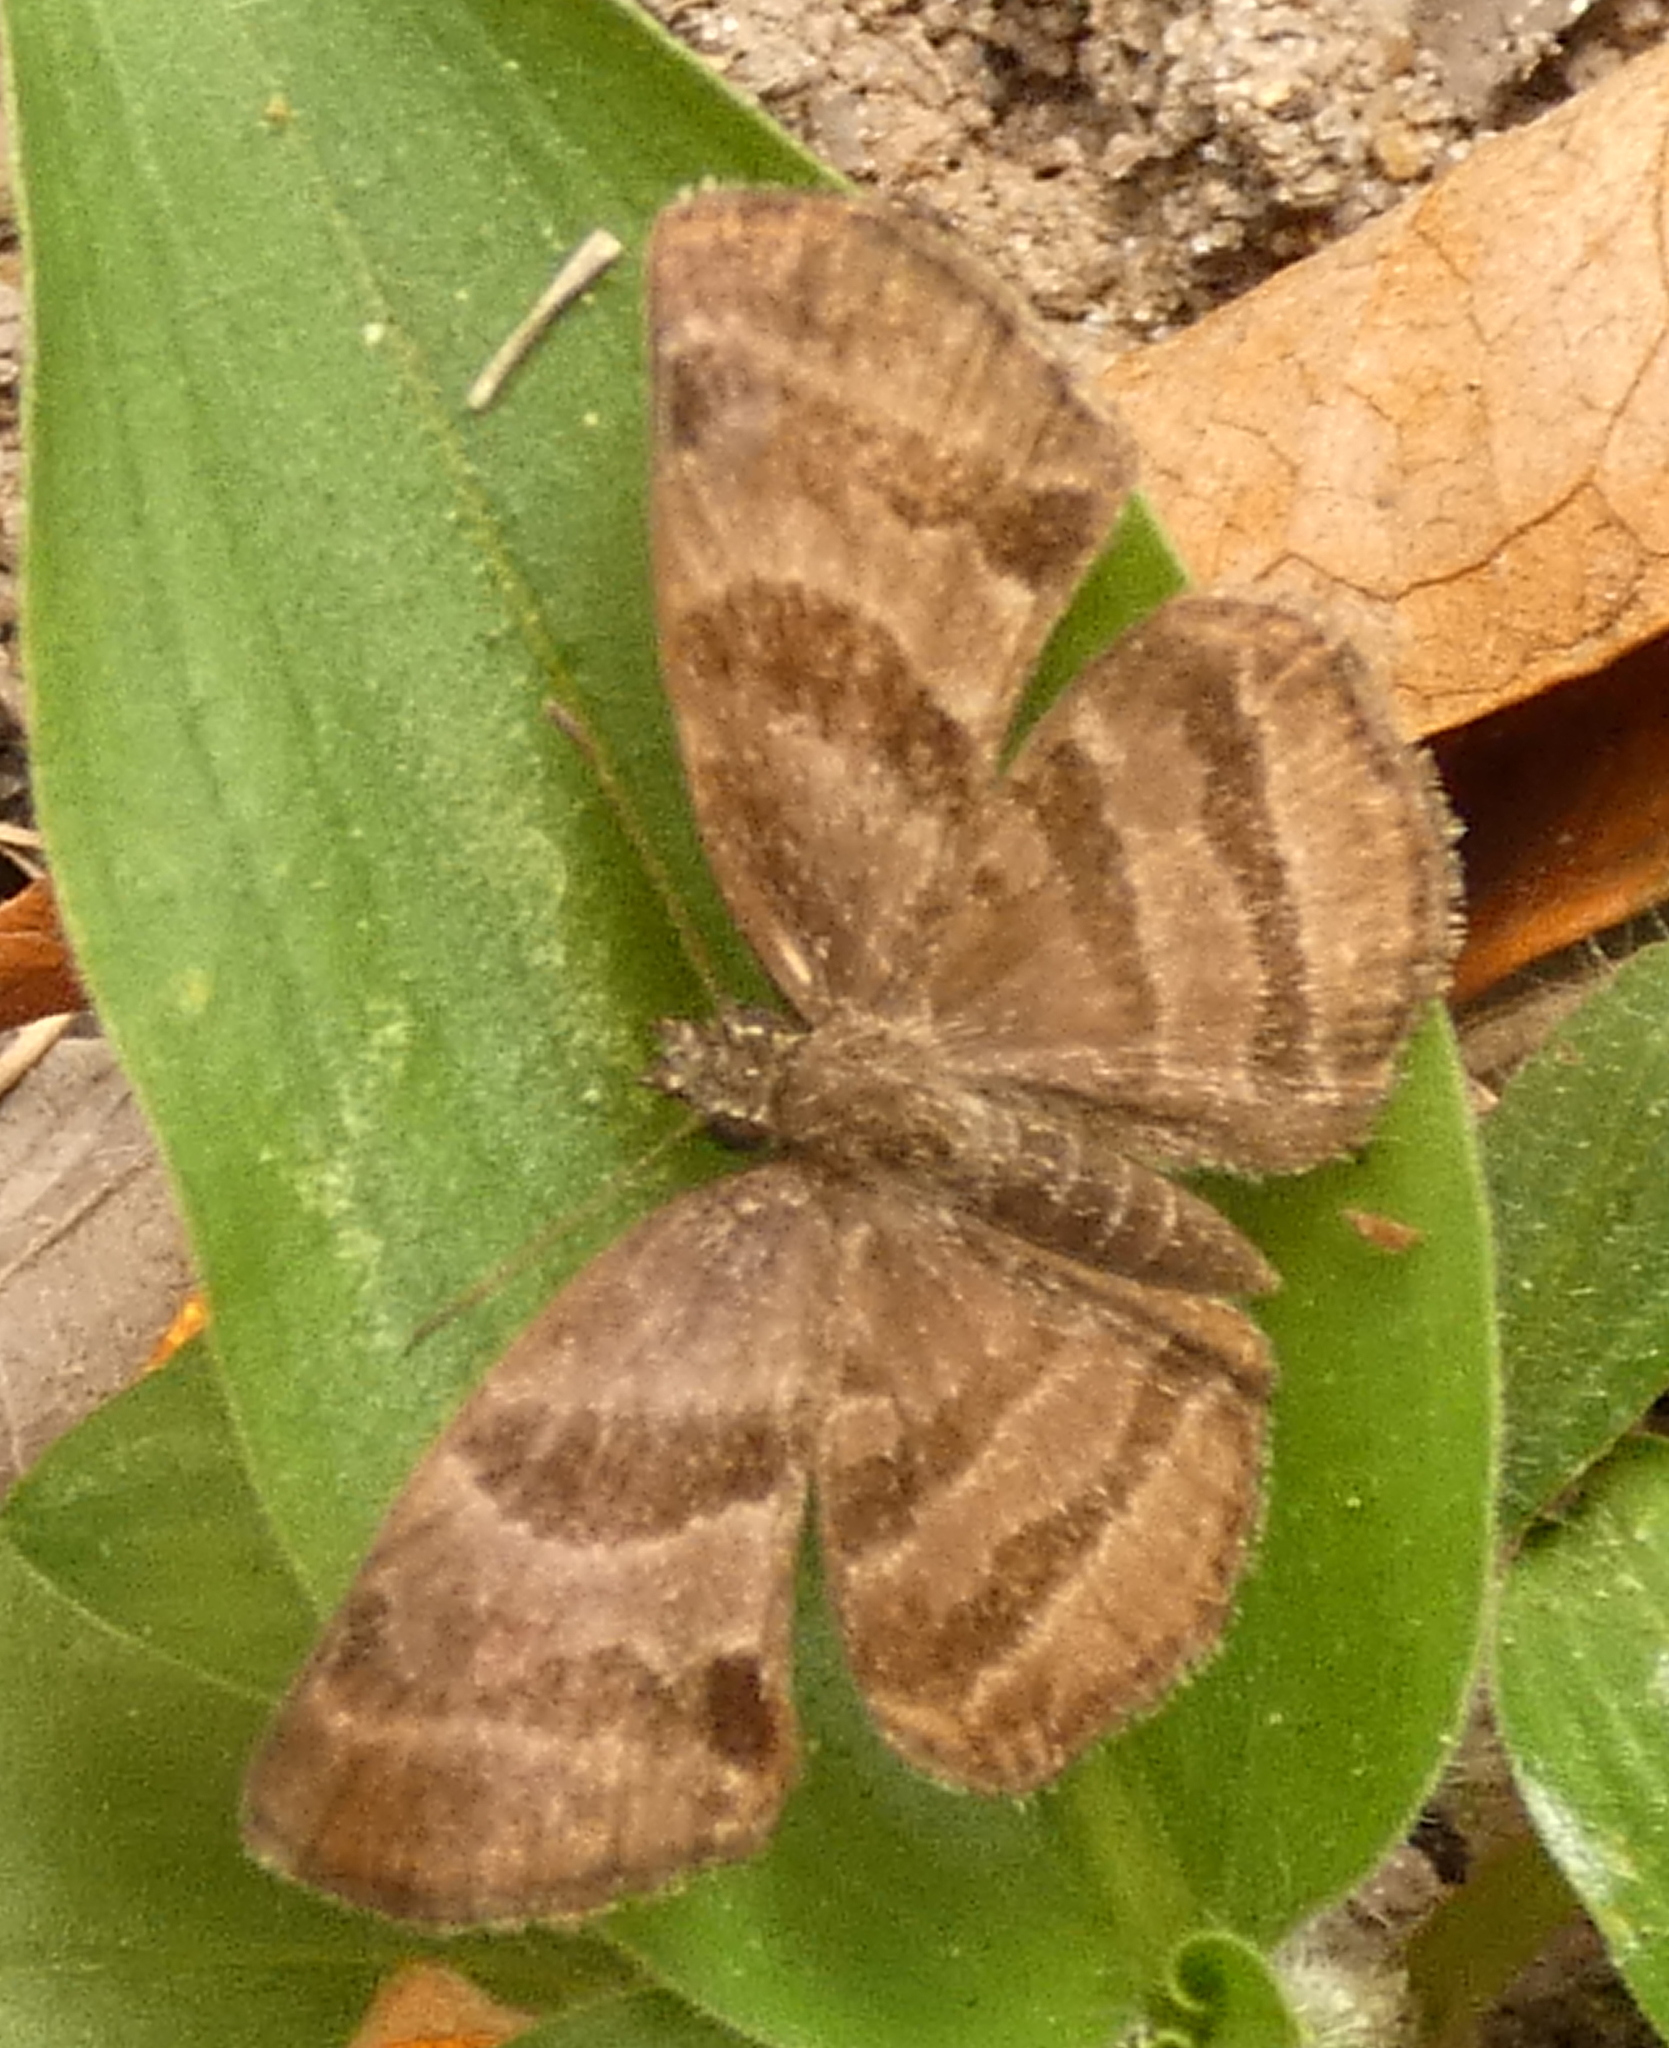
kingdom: Animalia
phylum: Arthropoda
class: Insecta
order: Lepidoptera
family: Hesperiidae
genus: Trina
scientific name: Trina geometrina
